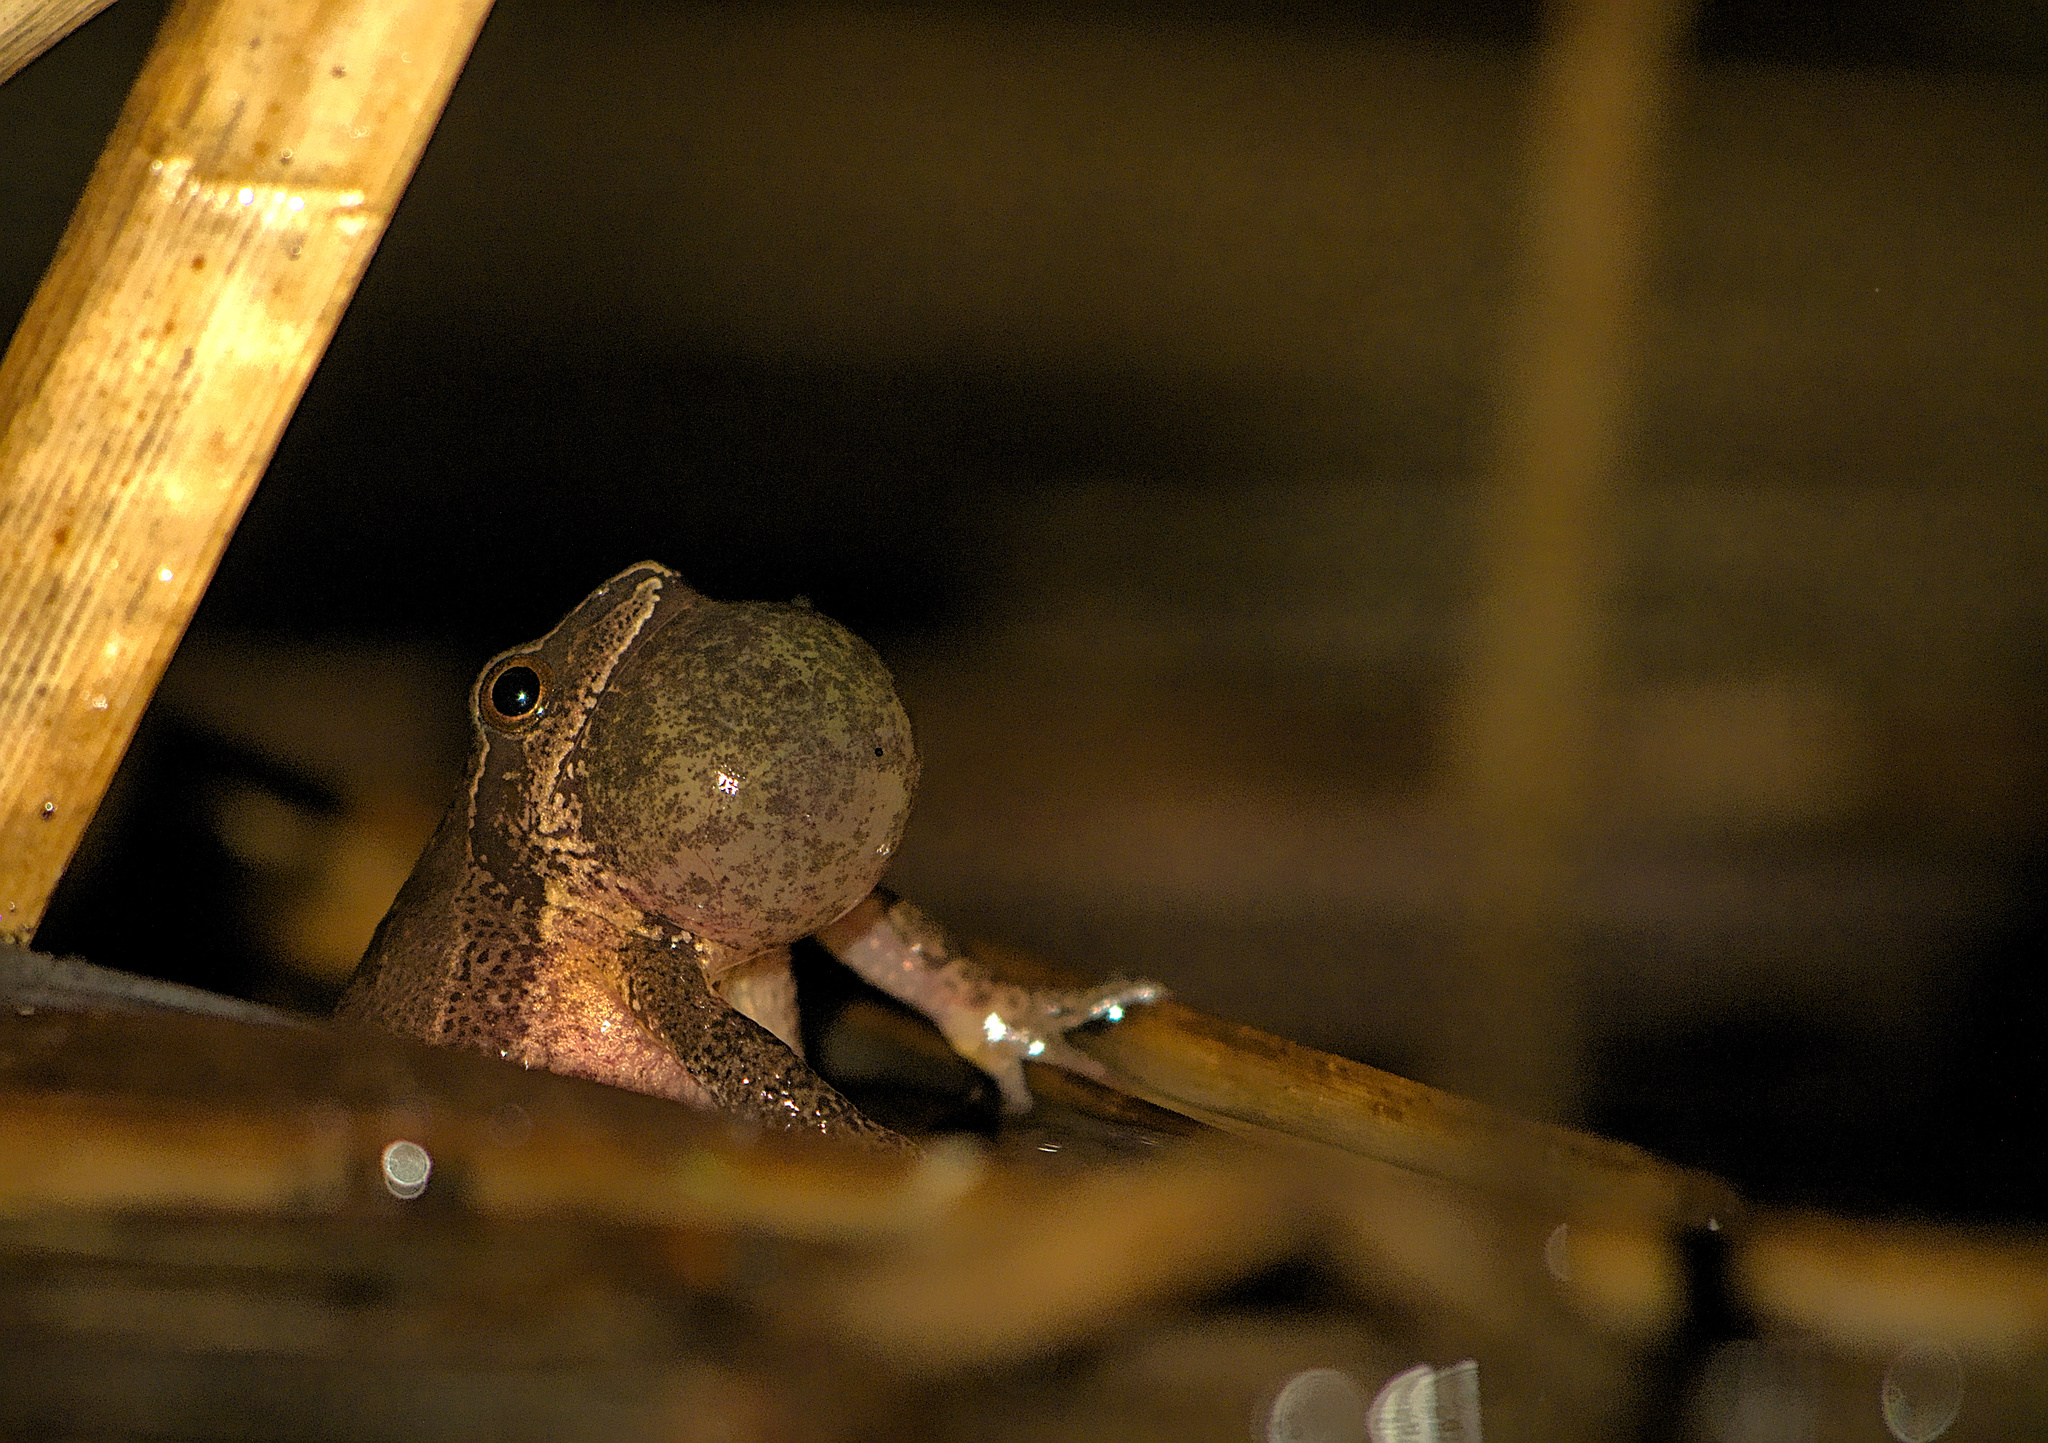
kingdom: Animalia
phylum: Chordata
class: Amphibia
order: Anura
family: Hylidae
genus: Pseudacris
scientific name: Pseudacris crucifer
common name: Spring peeper
